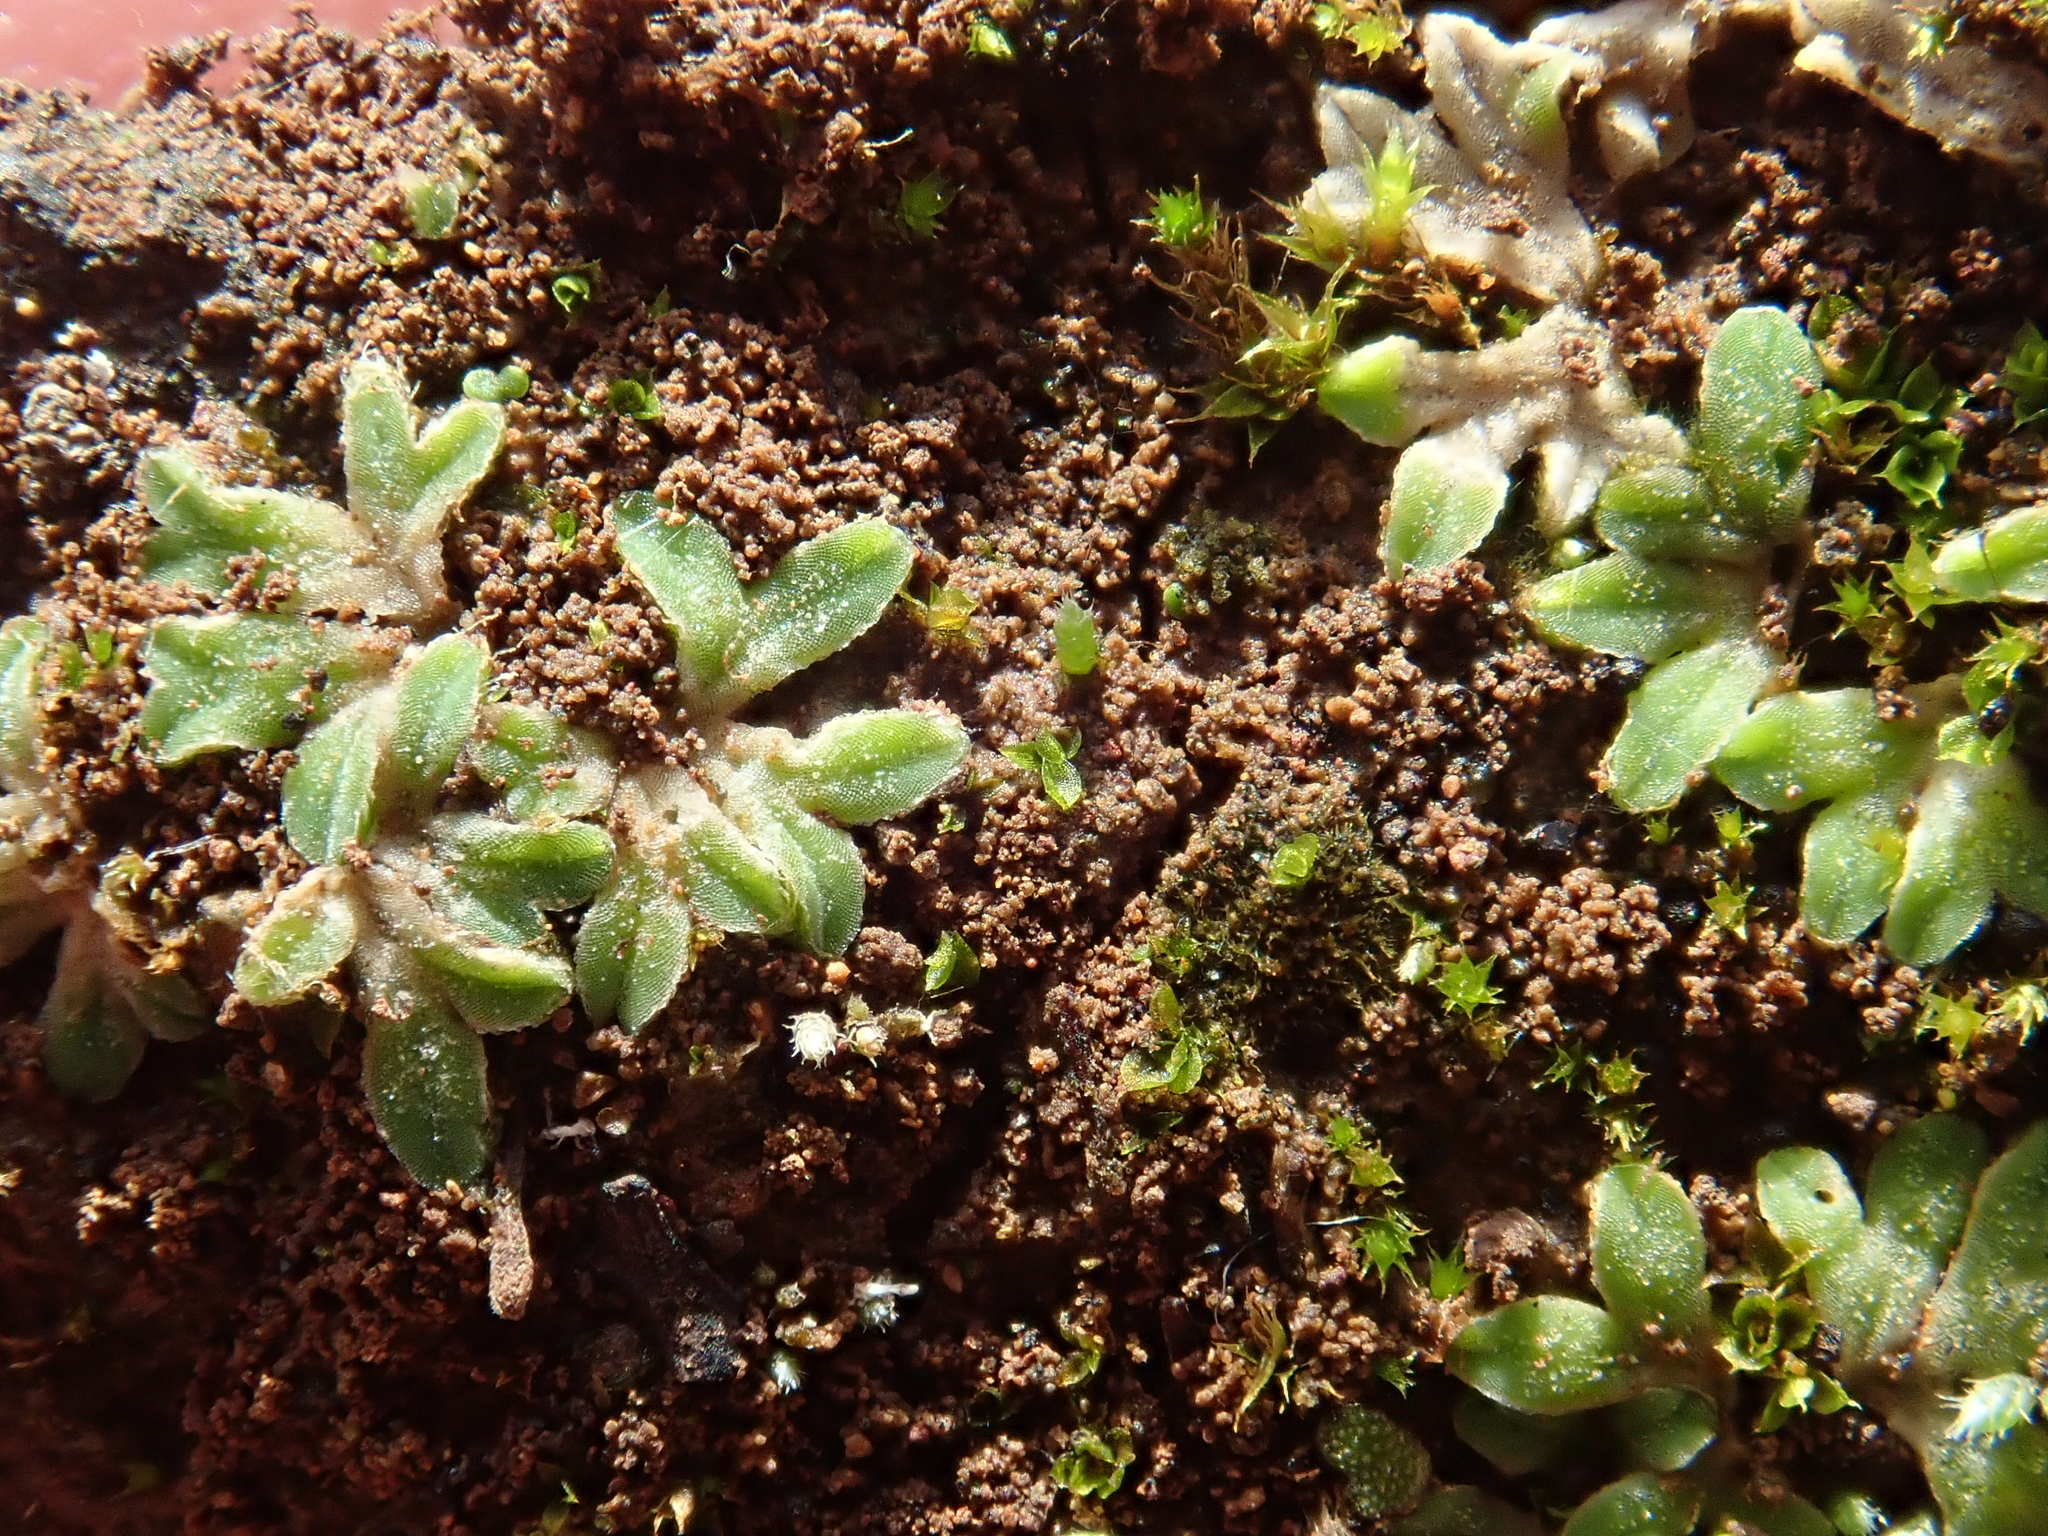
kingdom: Plantae
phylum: Marchantiophyta
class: Marchantiopsida
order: Marchantiales
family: Ricciaceae
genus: Riccia
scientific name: Riccia sorocarpa
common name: Common crystalwort
